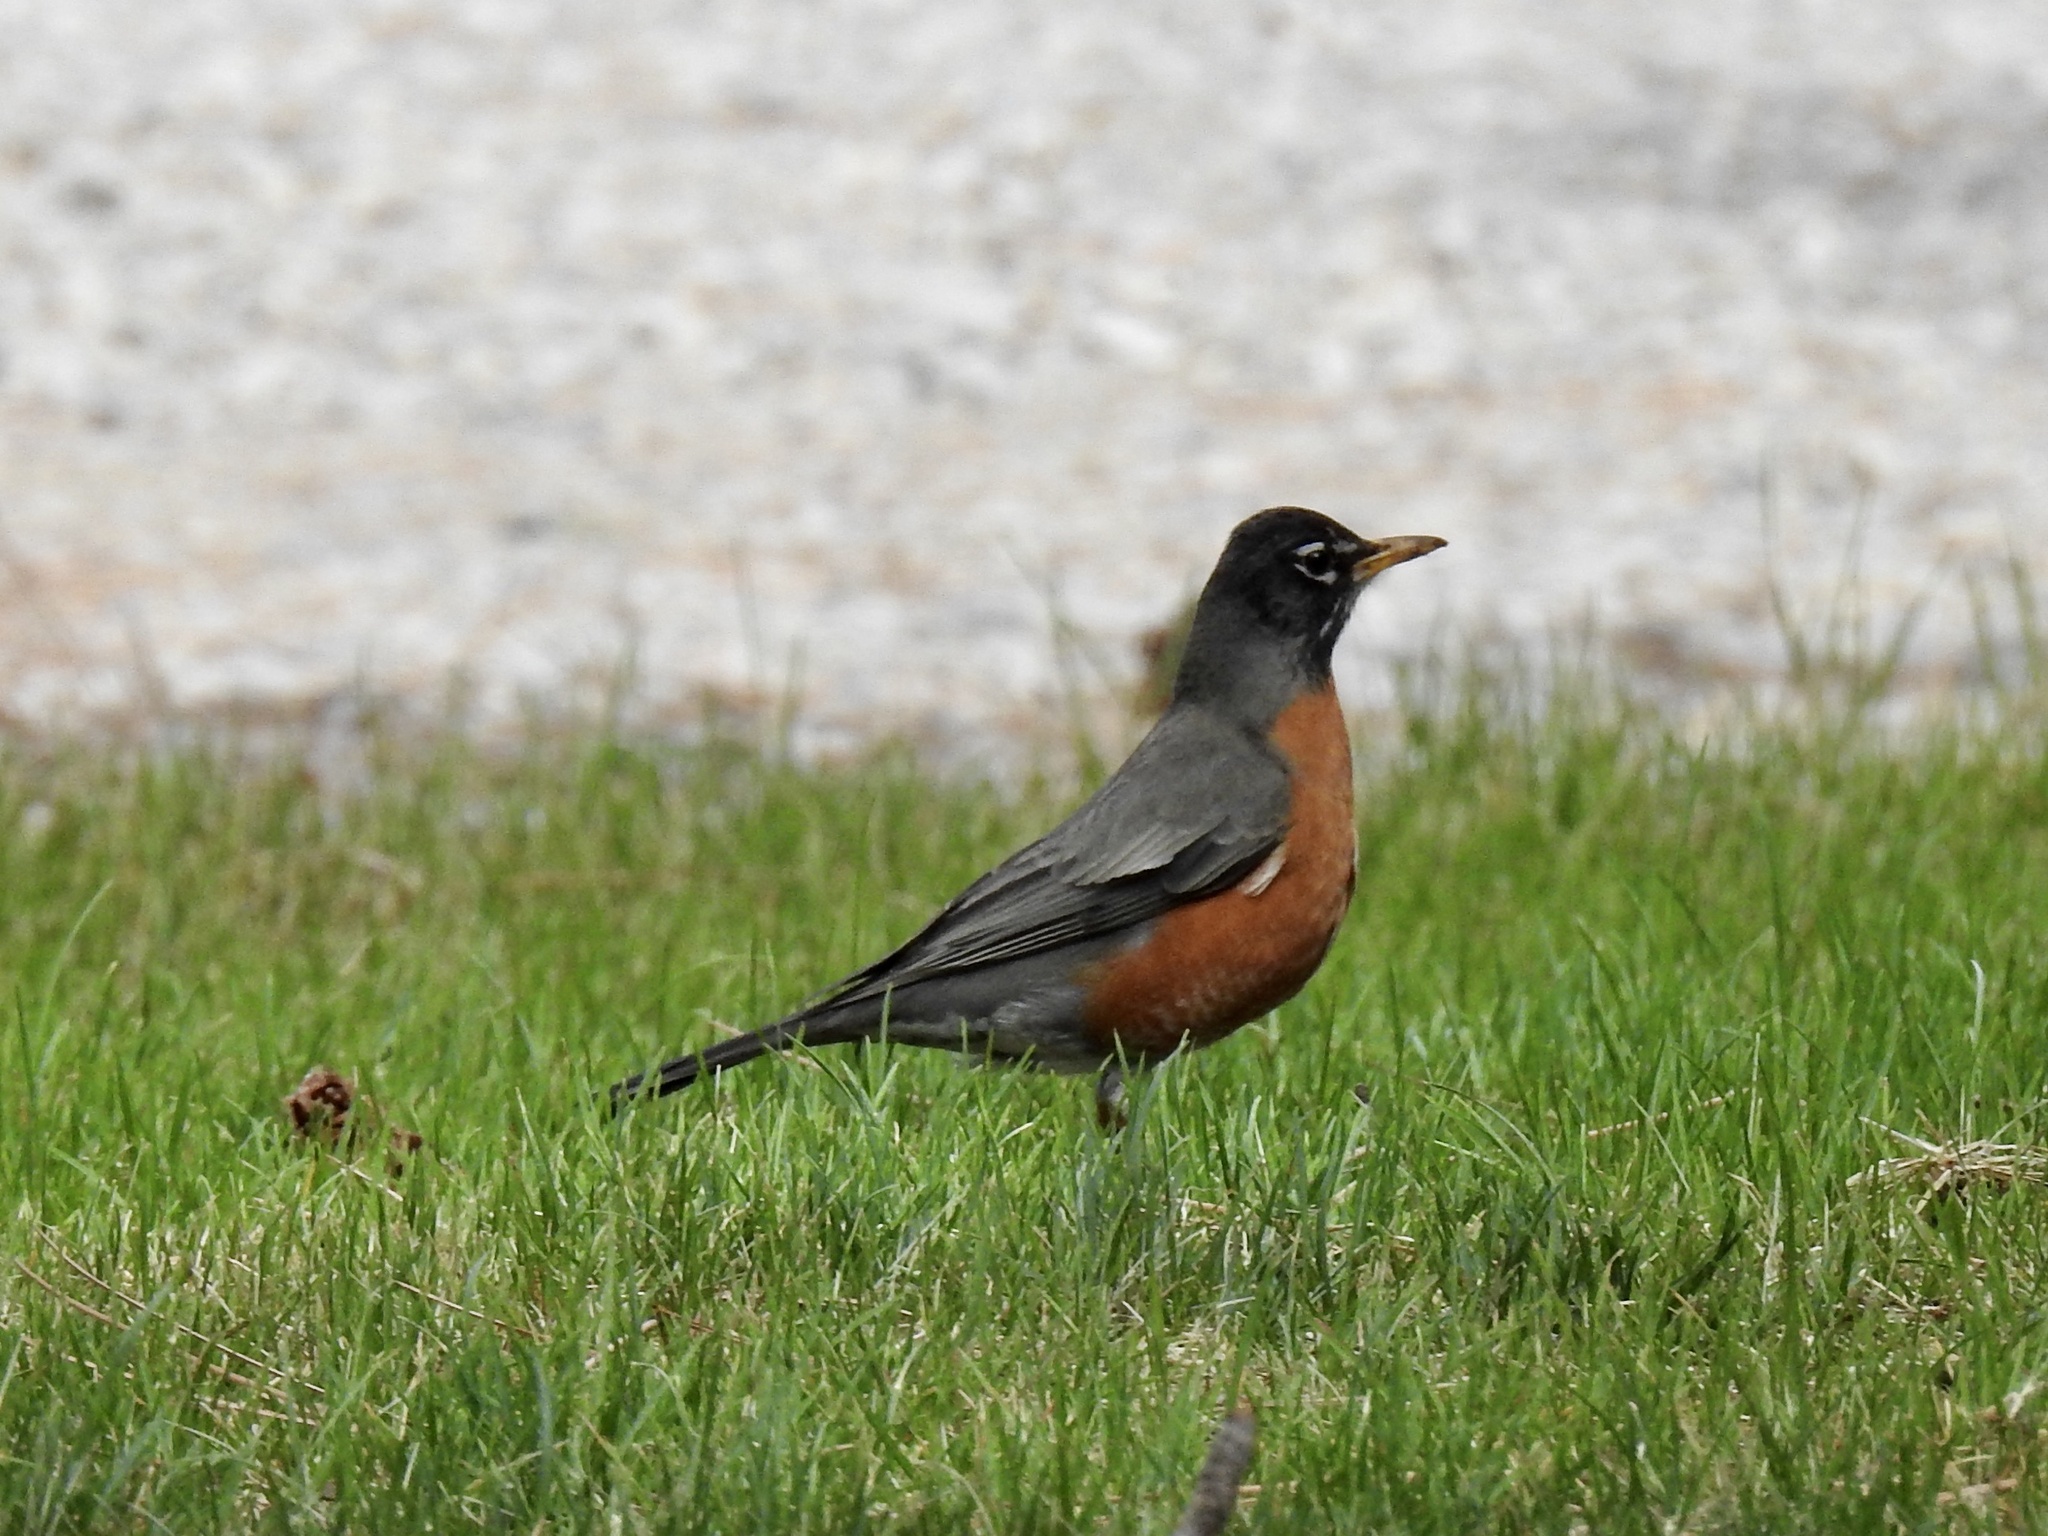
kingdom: Animalia
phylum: Chordata
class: Aves
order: Passeriformes
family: Turdidae
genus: Turdus
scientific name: Turdus migratorius
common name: American robin
